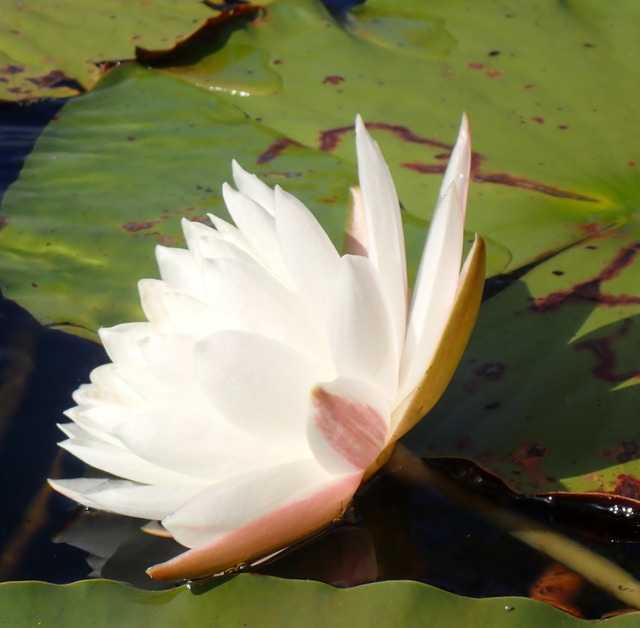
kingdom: Plantae
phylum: Tracheophyta
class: Magnoliopsida
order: Nymphaeales
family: Nymphaeaceae
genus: Nymphaea
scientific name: Nymphaea odorata
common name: Fragrant water-lily
